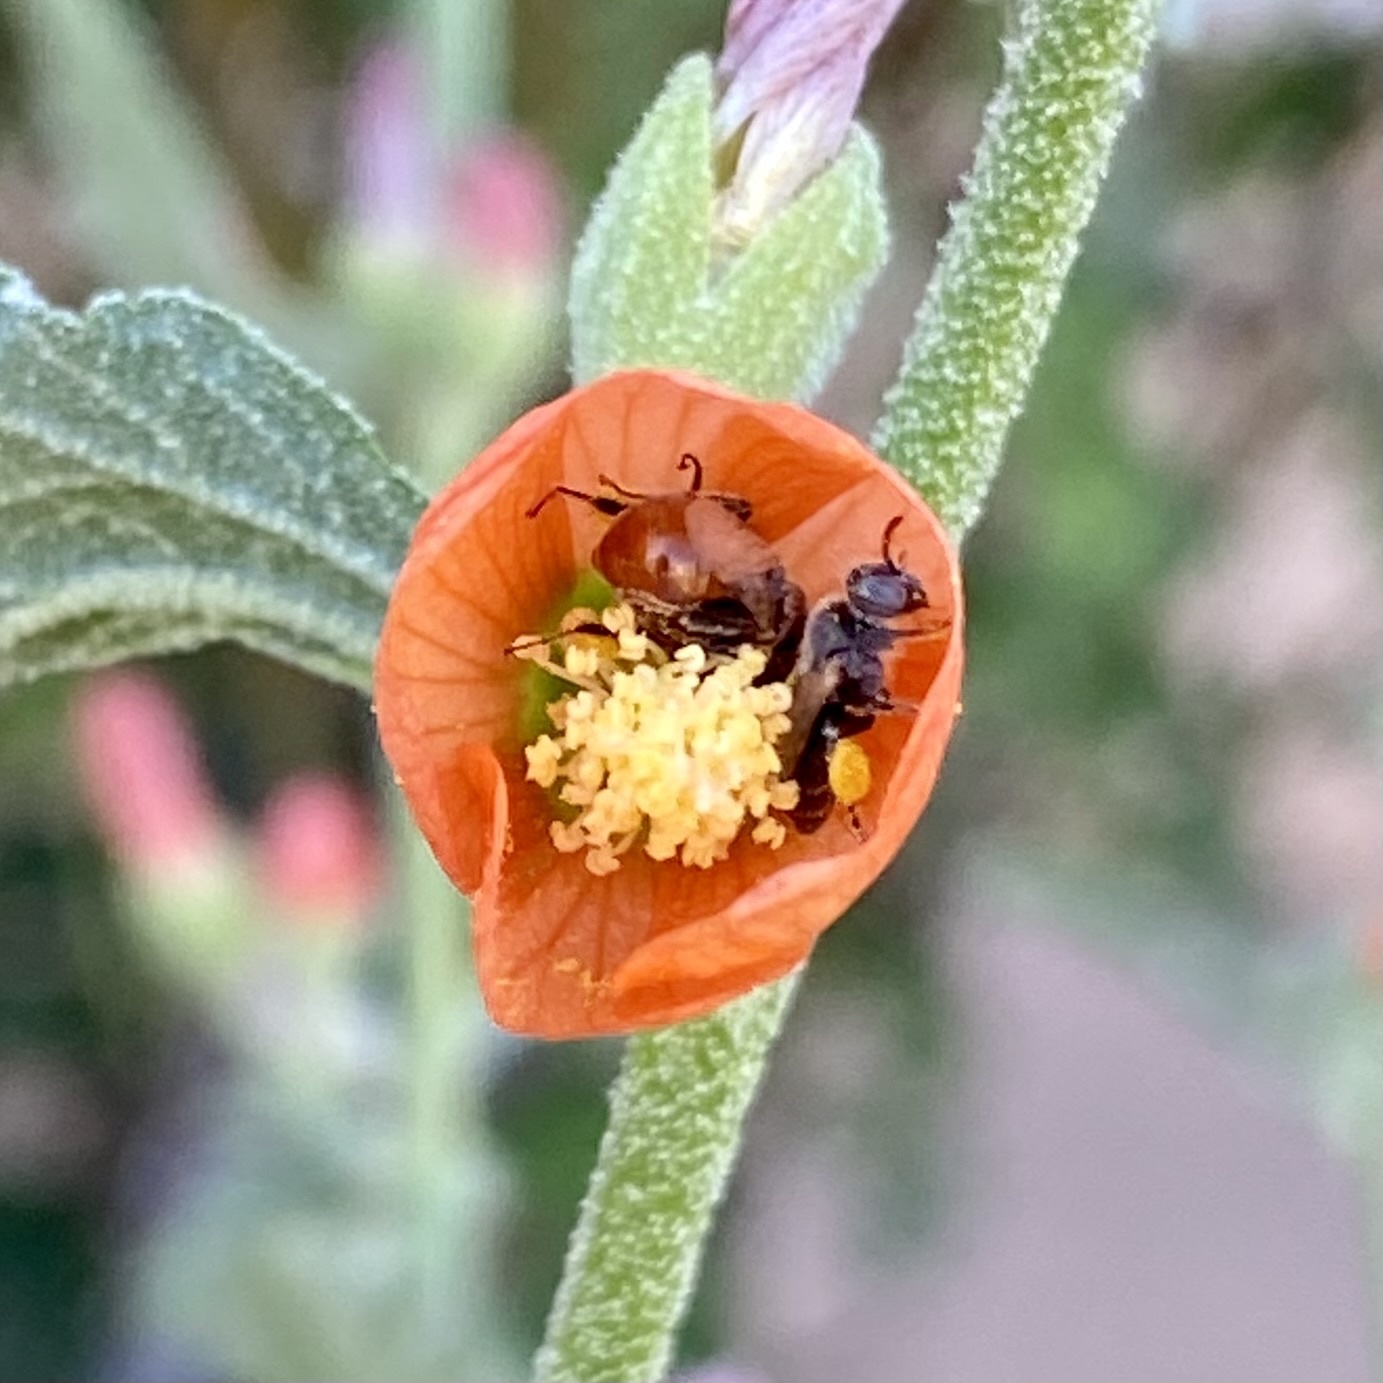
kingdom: Animalia
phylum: Arthropoda
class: Insecta
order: Hymenoptera
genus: Macroteropsis
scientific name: Macroteropsis
